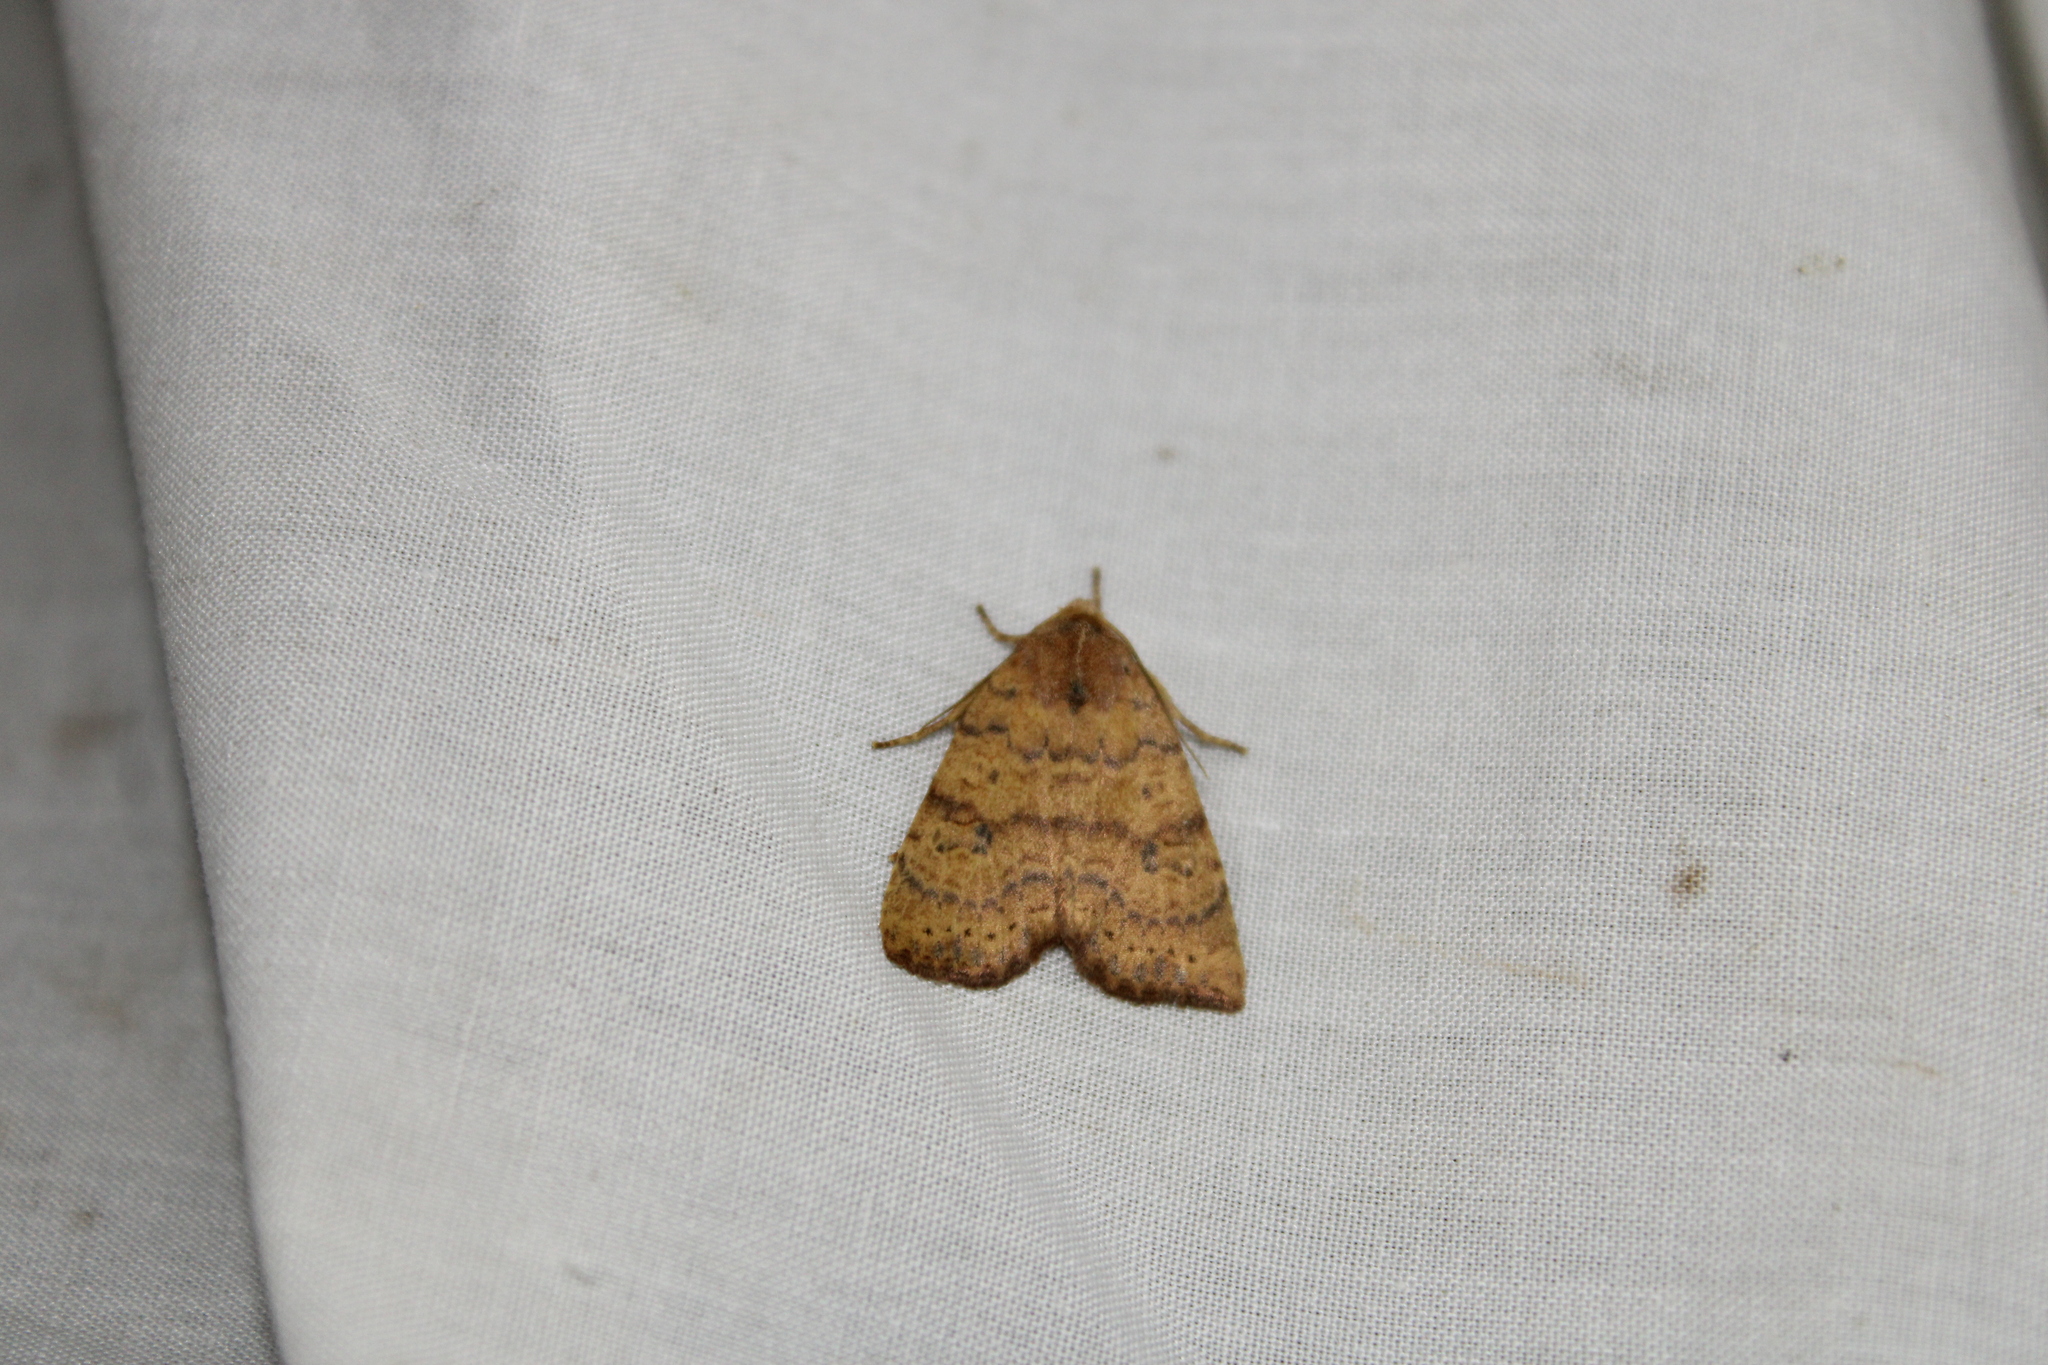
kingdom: Animalia
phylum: Arthropoda
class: Insecta
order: Lepidoptera
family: Noctuidae
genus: Anathix
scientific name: Anathix ralla
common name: Dotted sallow
